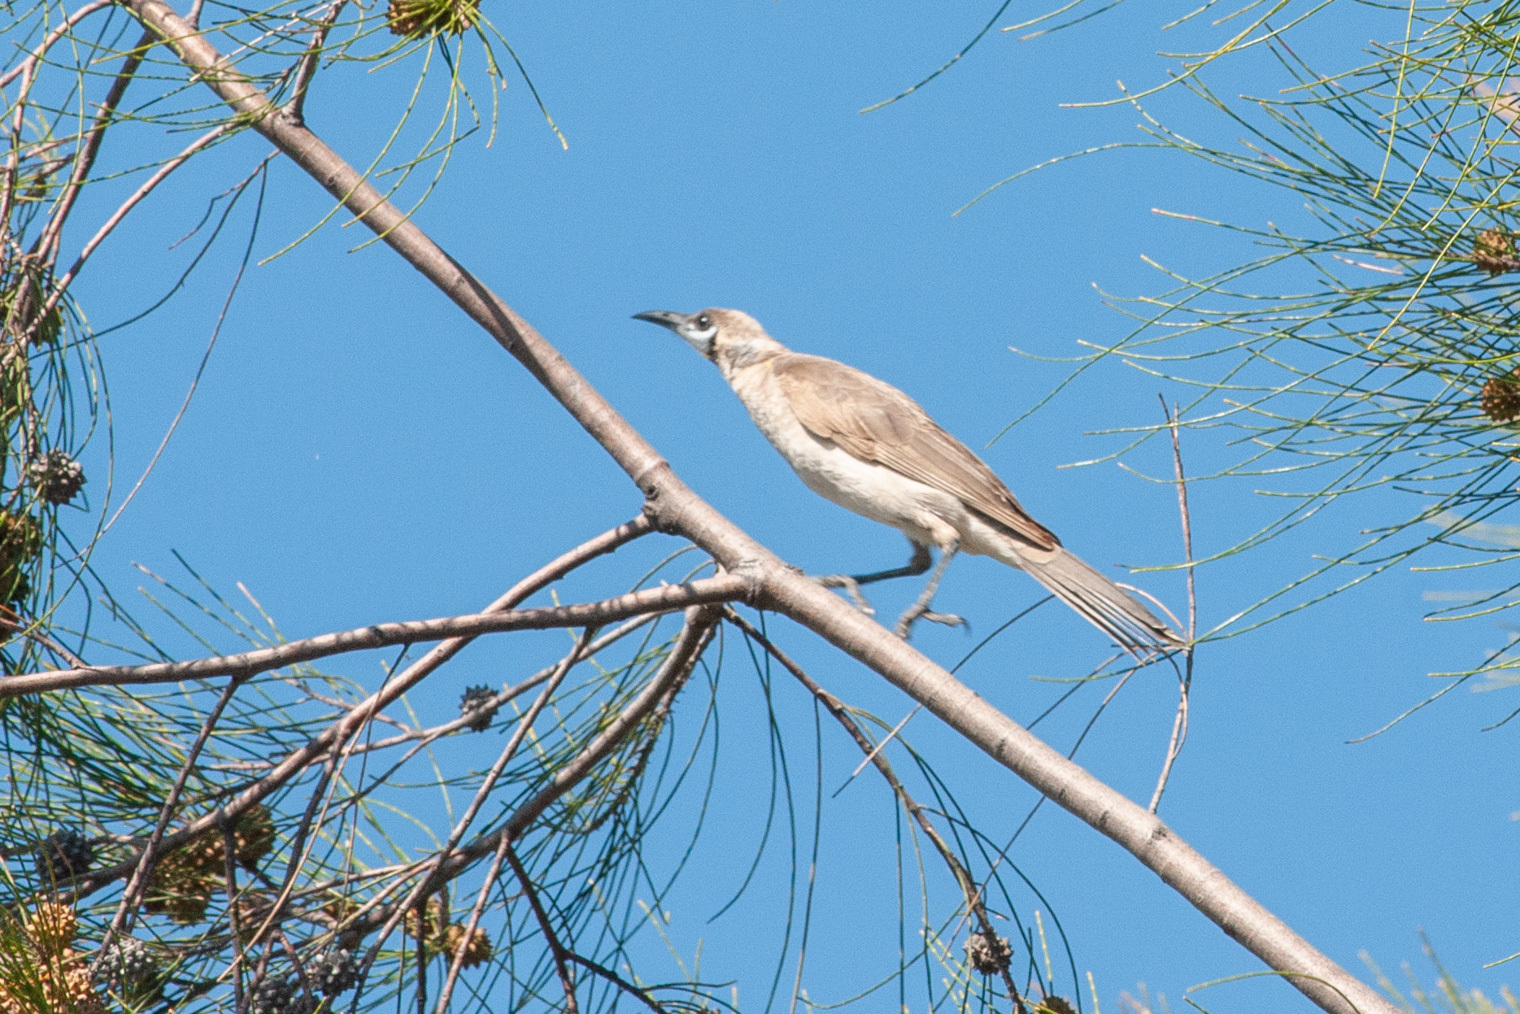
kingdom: Animalia
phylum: Chordata
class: Aves
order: Passeriformes
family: Meliphagidae
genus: Philemon
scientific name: Philemon citreogularis
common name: Little friarbird
